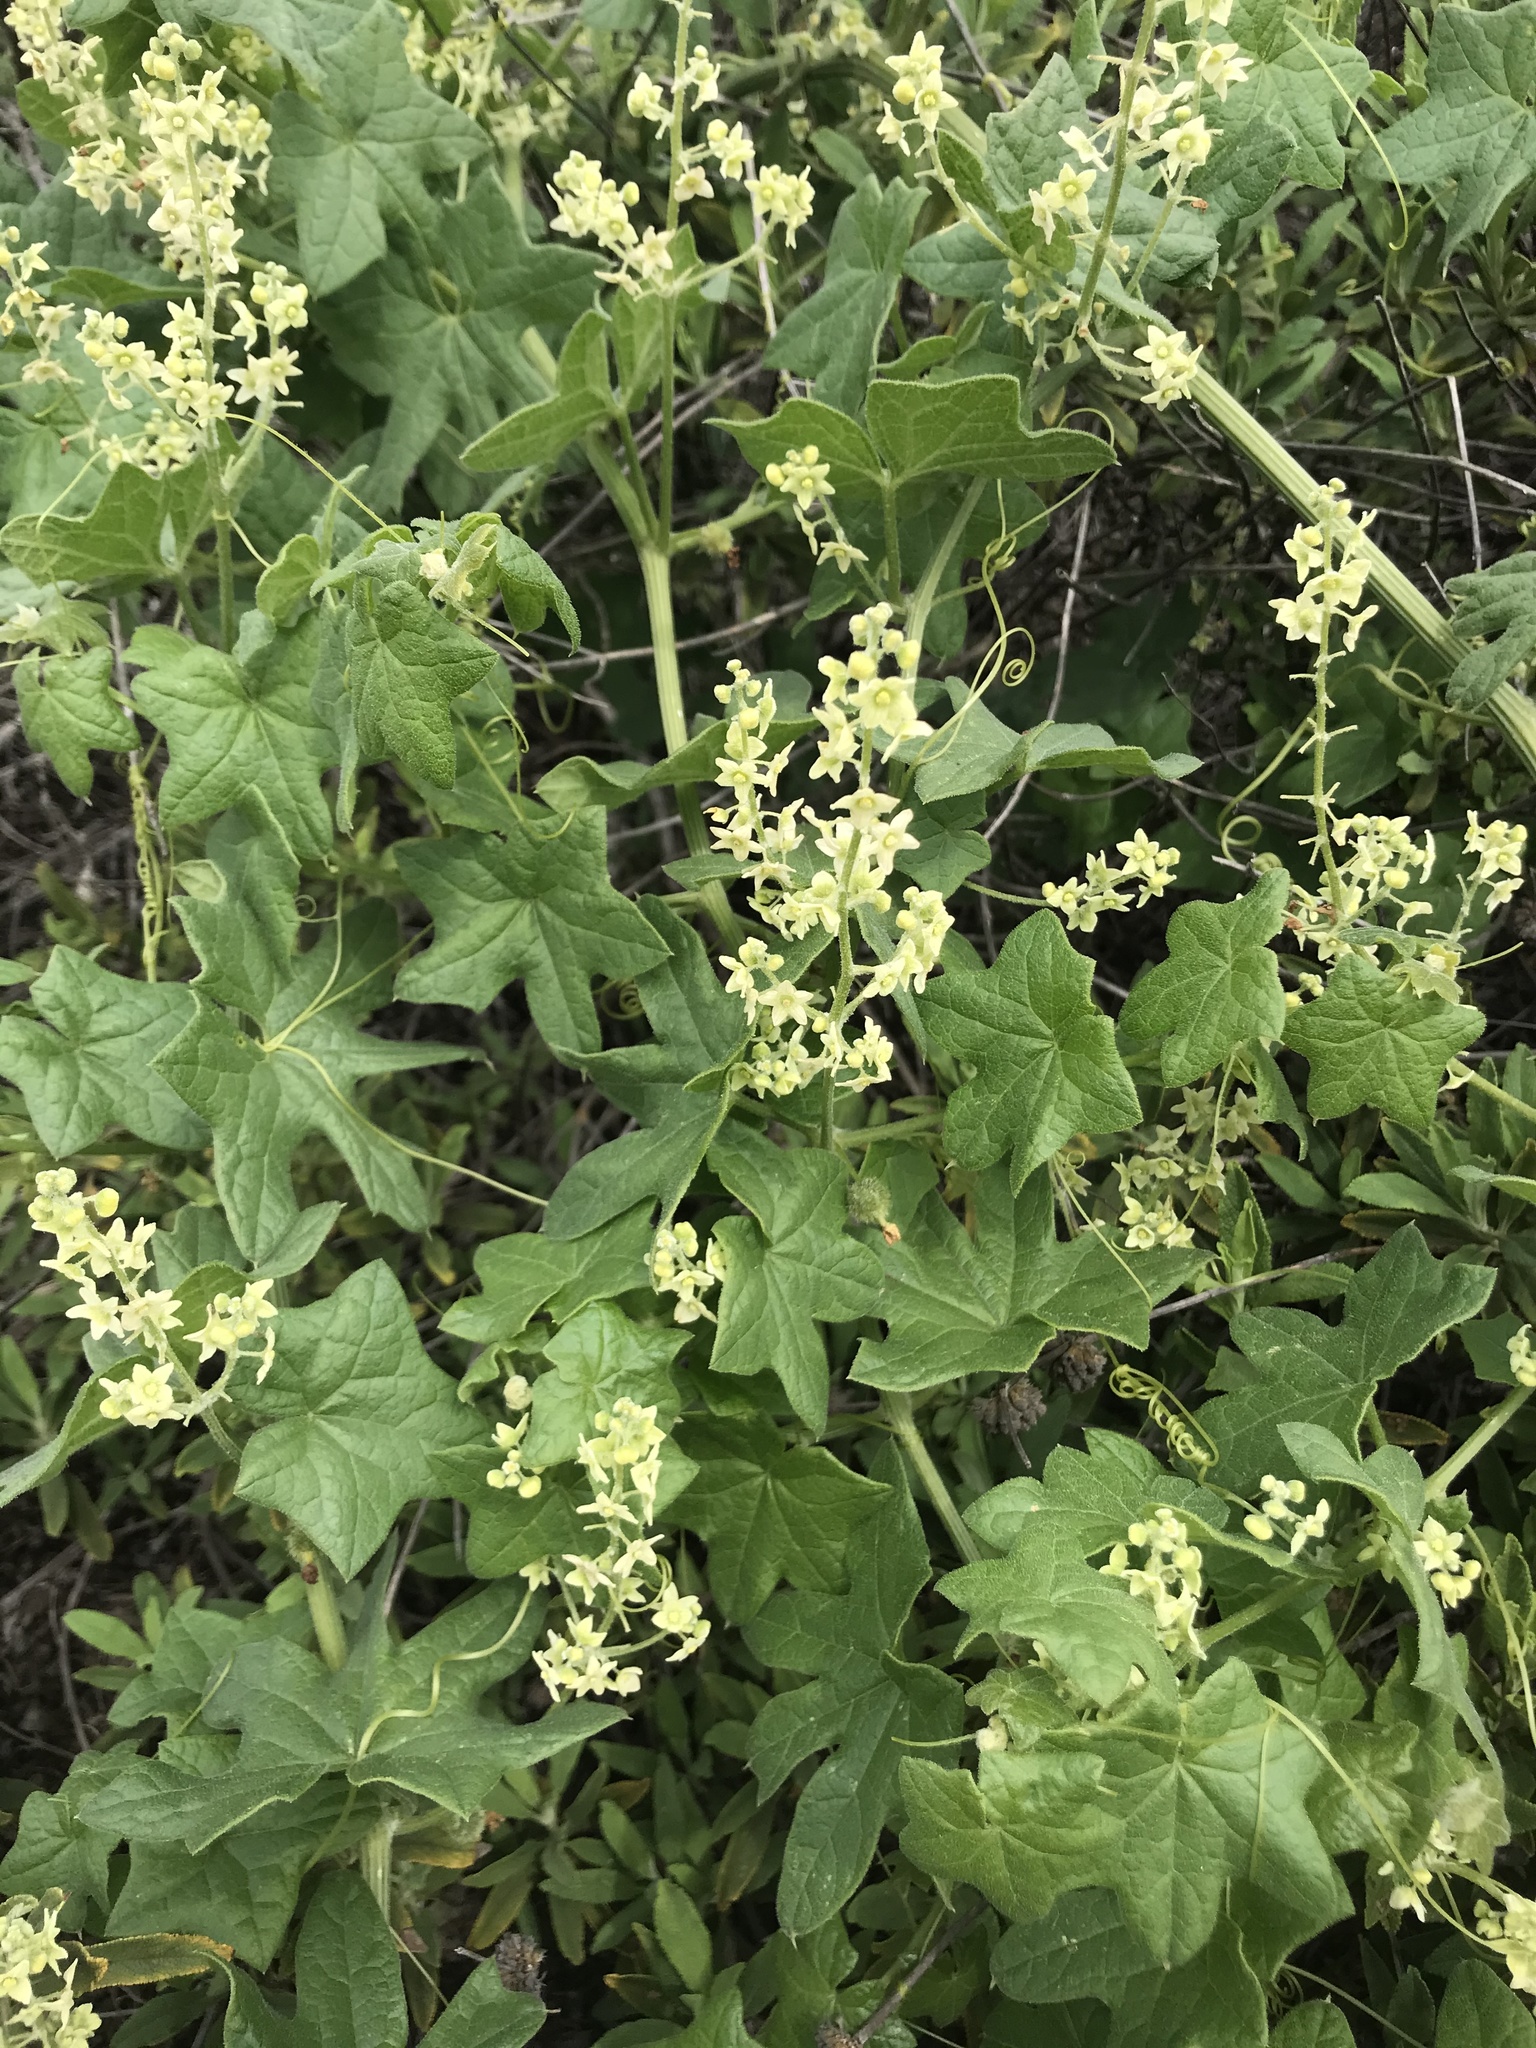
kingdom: Plantae
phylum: Tracheophyta
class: Magnoliopsida
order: Cucurbitales
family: Cucurbitaceae
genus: Marah
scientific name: Marah fabacea
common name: California manroot
